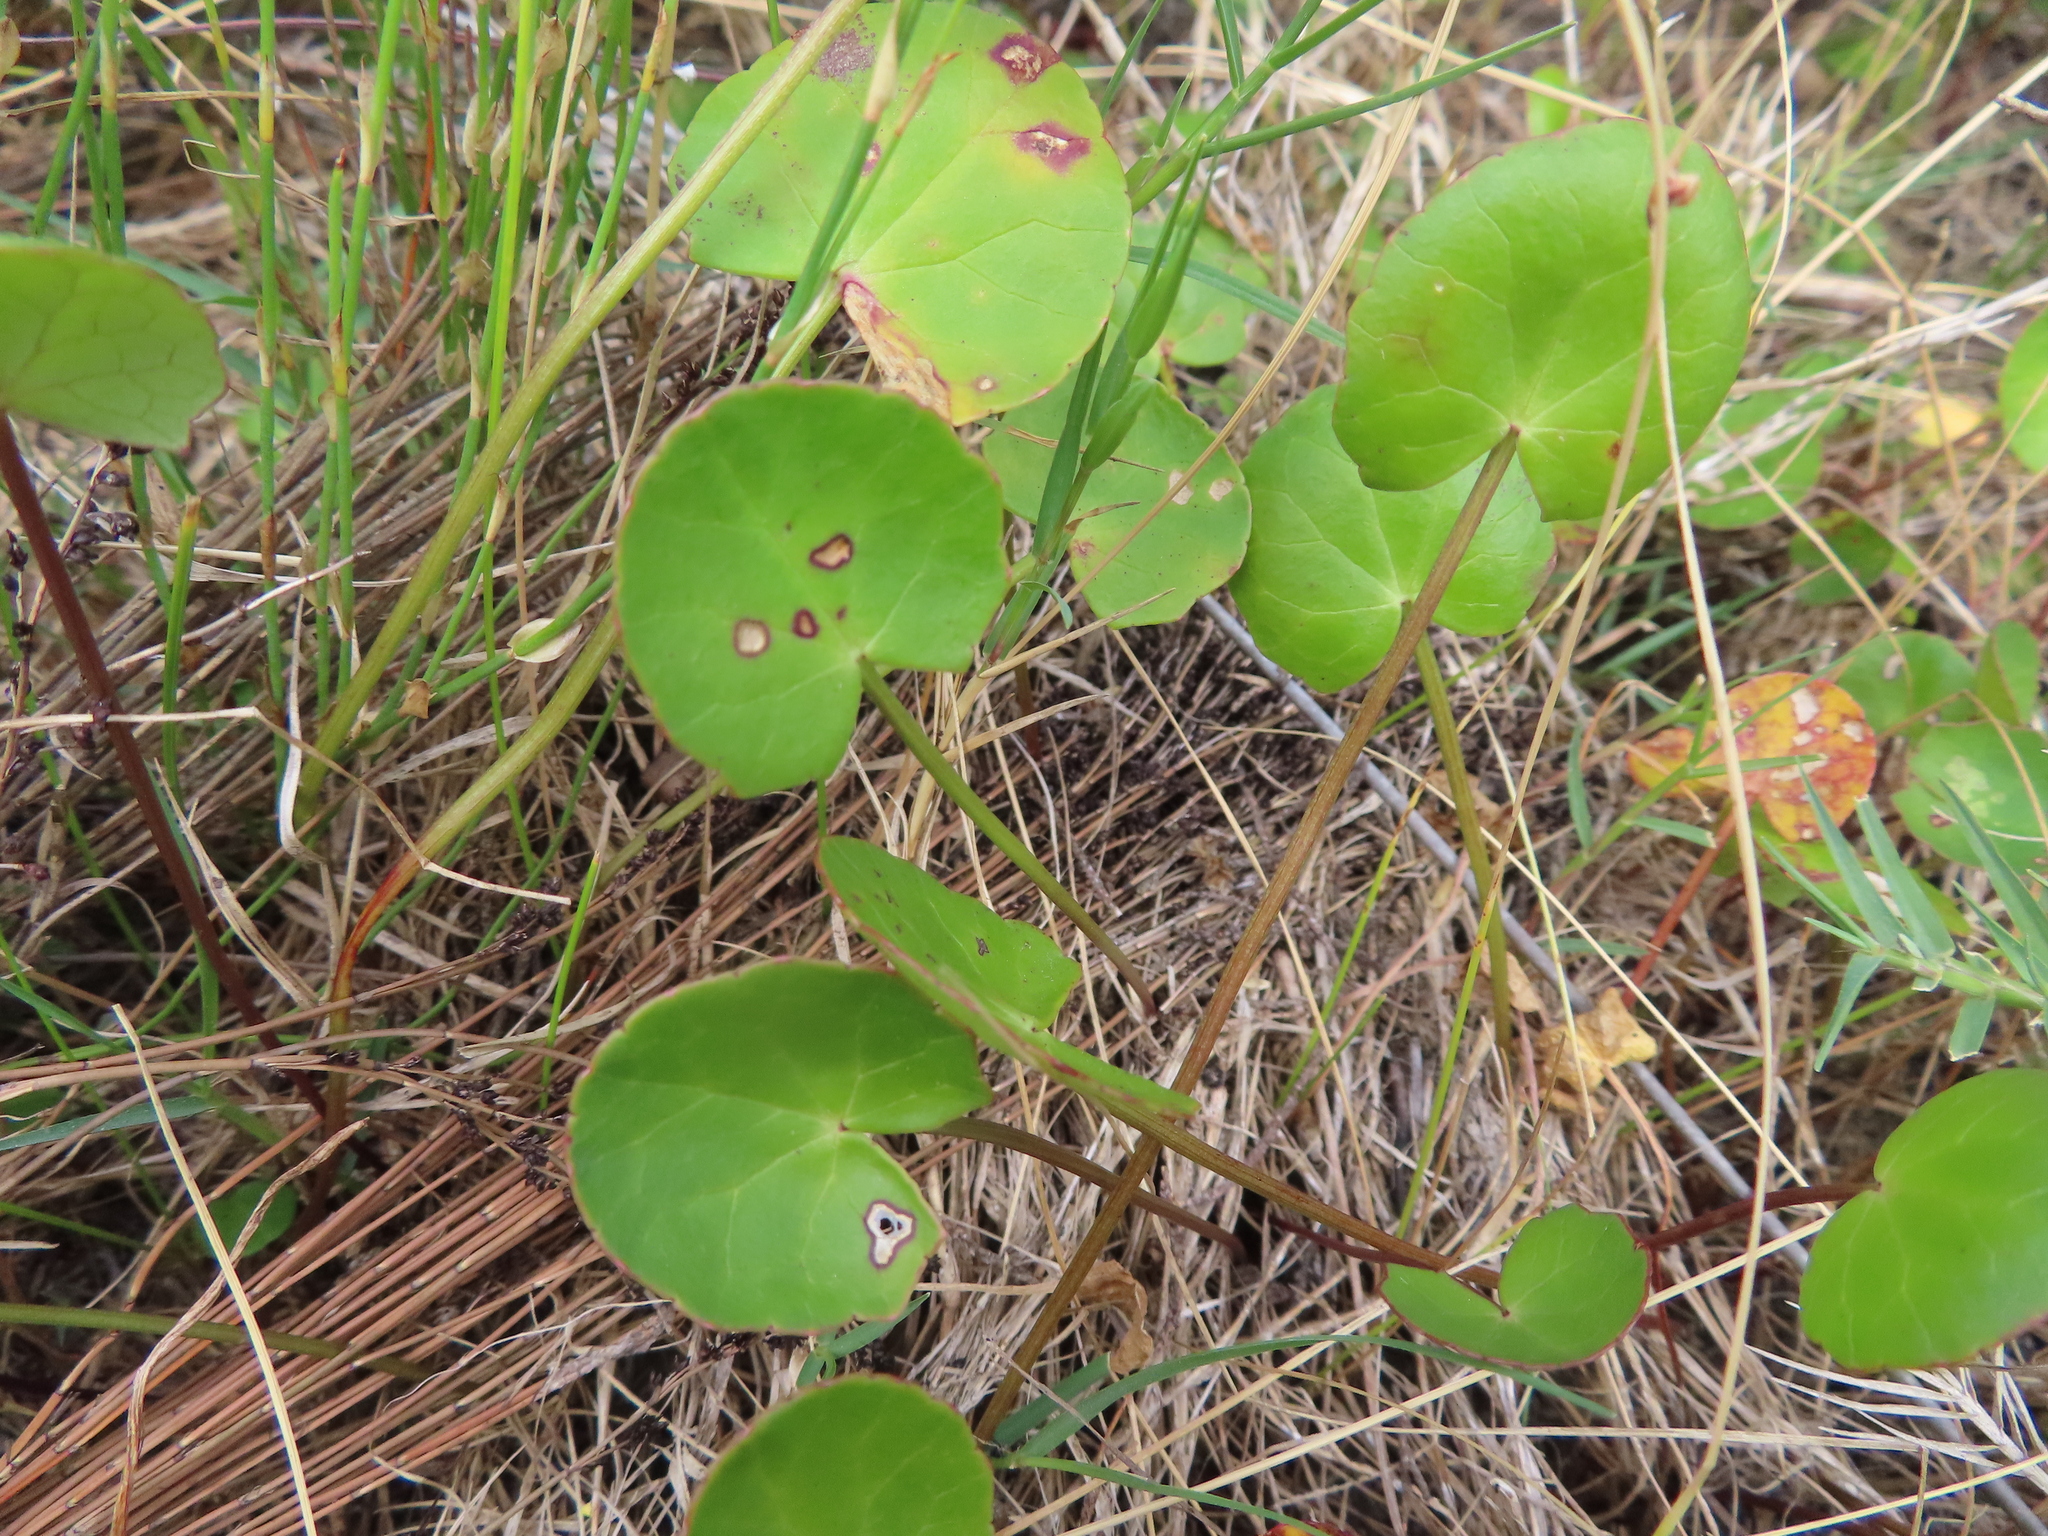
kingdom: Plantae
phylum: Tracheophyta
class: Magnoliopsida
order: Apiales
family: Apiaceae
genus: Centella
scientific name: Centella asiatica
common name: Spadeleaf
